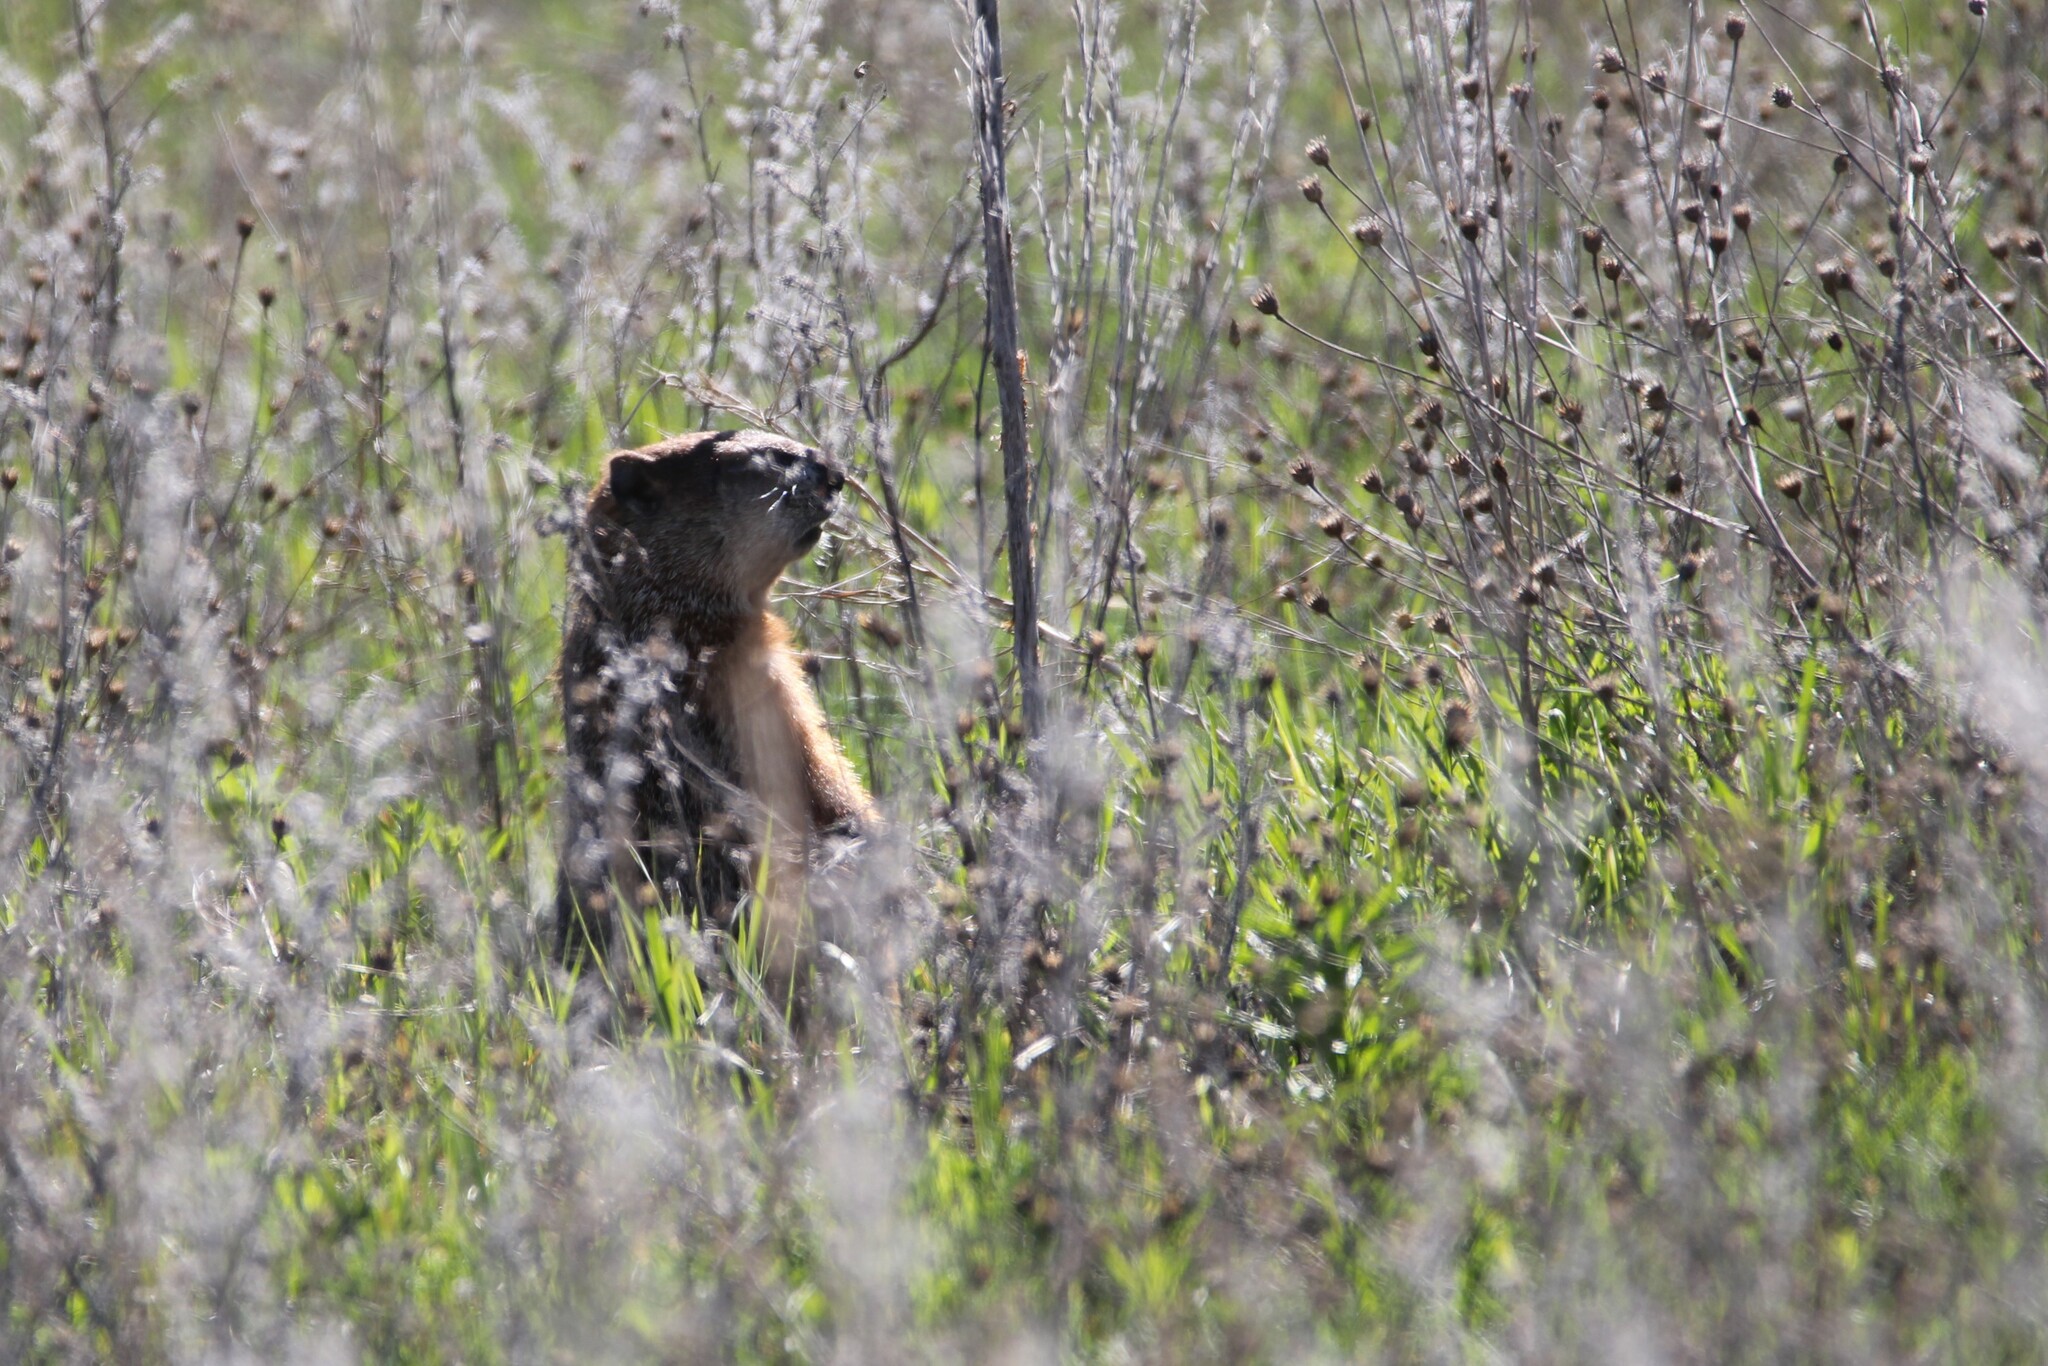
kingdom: Animalia
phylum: Chordata
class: Mammalia
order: Rodentia
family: Sciuridae
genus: Marmota
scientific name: Marmota monax
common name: Groundhog
